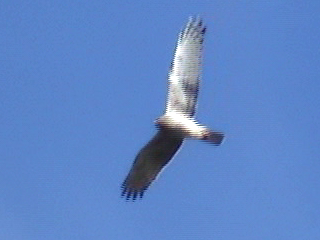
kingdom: Animalia
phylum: Chordata
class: Aves
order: Accipitriformes
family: Accipitridae
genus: Circus
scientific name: Circus approximans
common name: Swamp harrier
